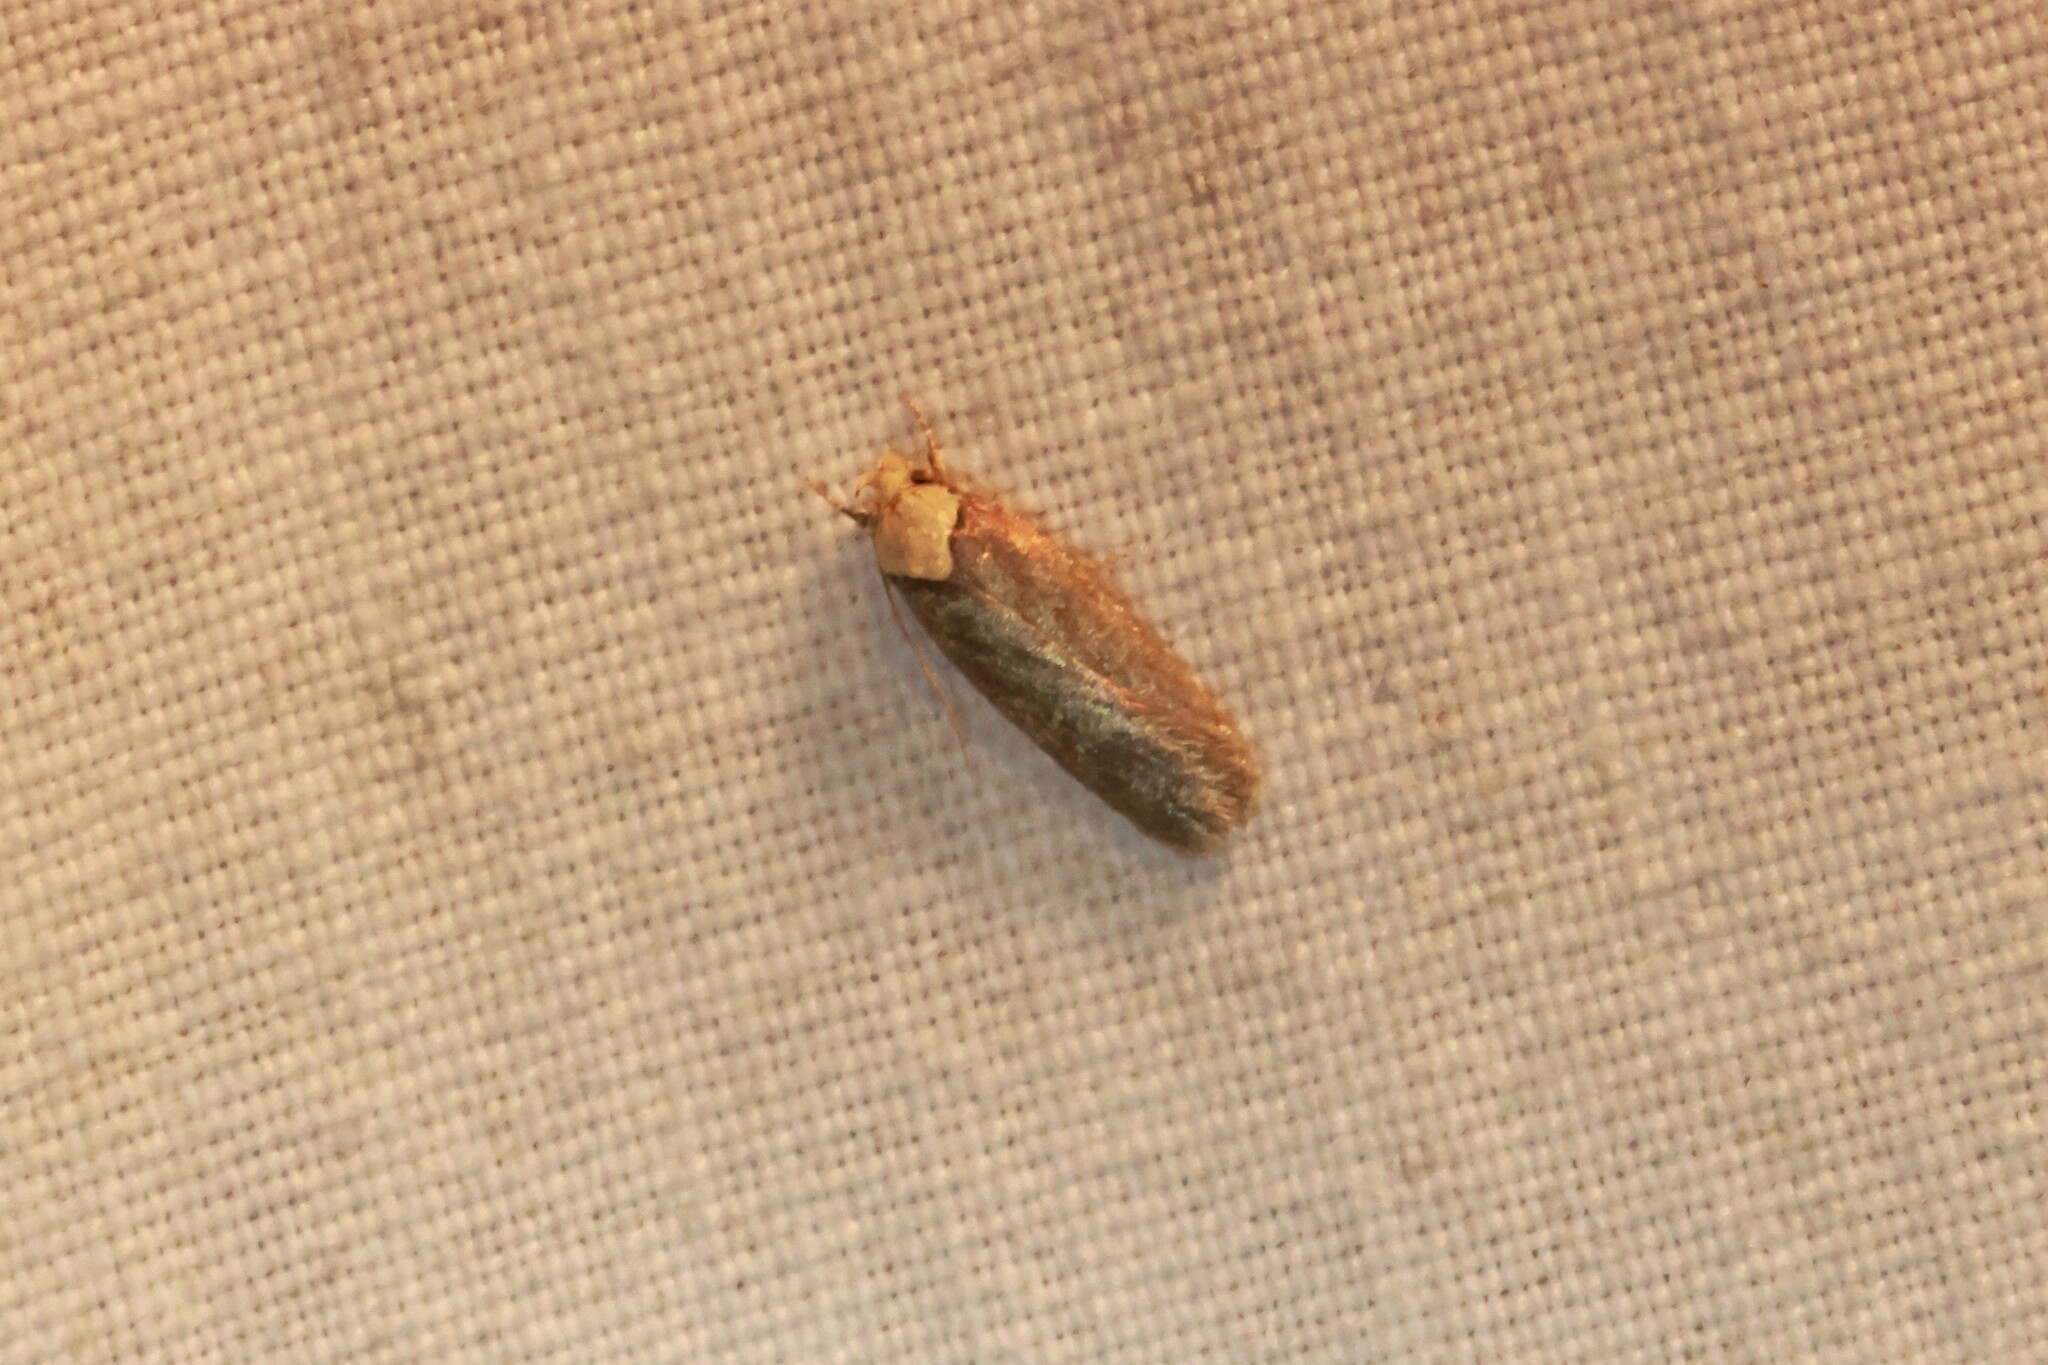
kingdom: Animalia
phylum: Arthropoda
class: Insecta
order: Lepidoptera
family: Depressariidae
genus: Depressaria
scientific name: Depressaria depressana
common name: Lost flat-body
